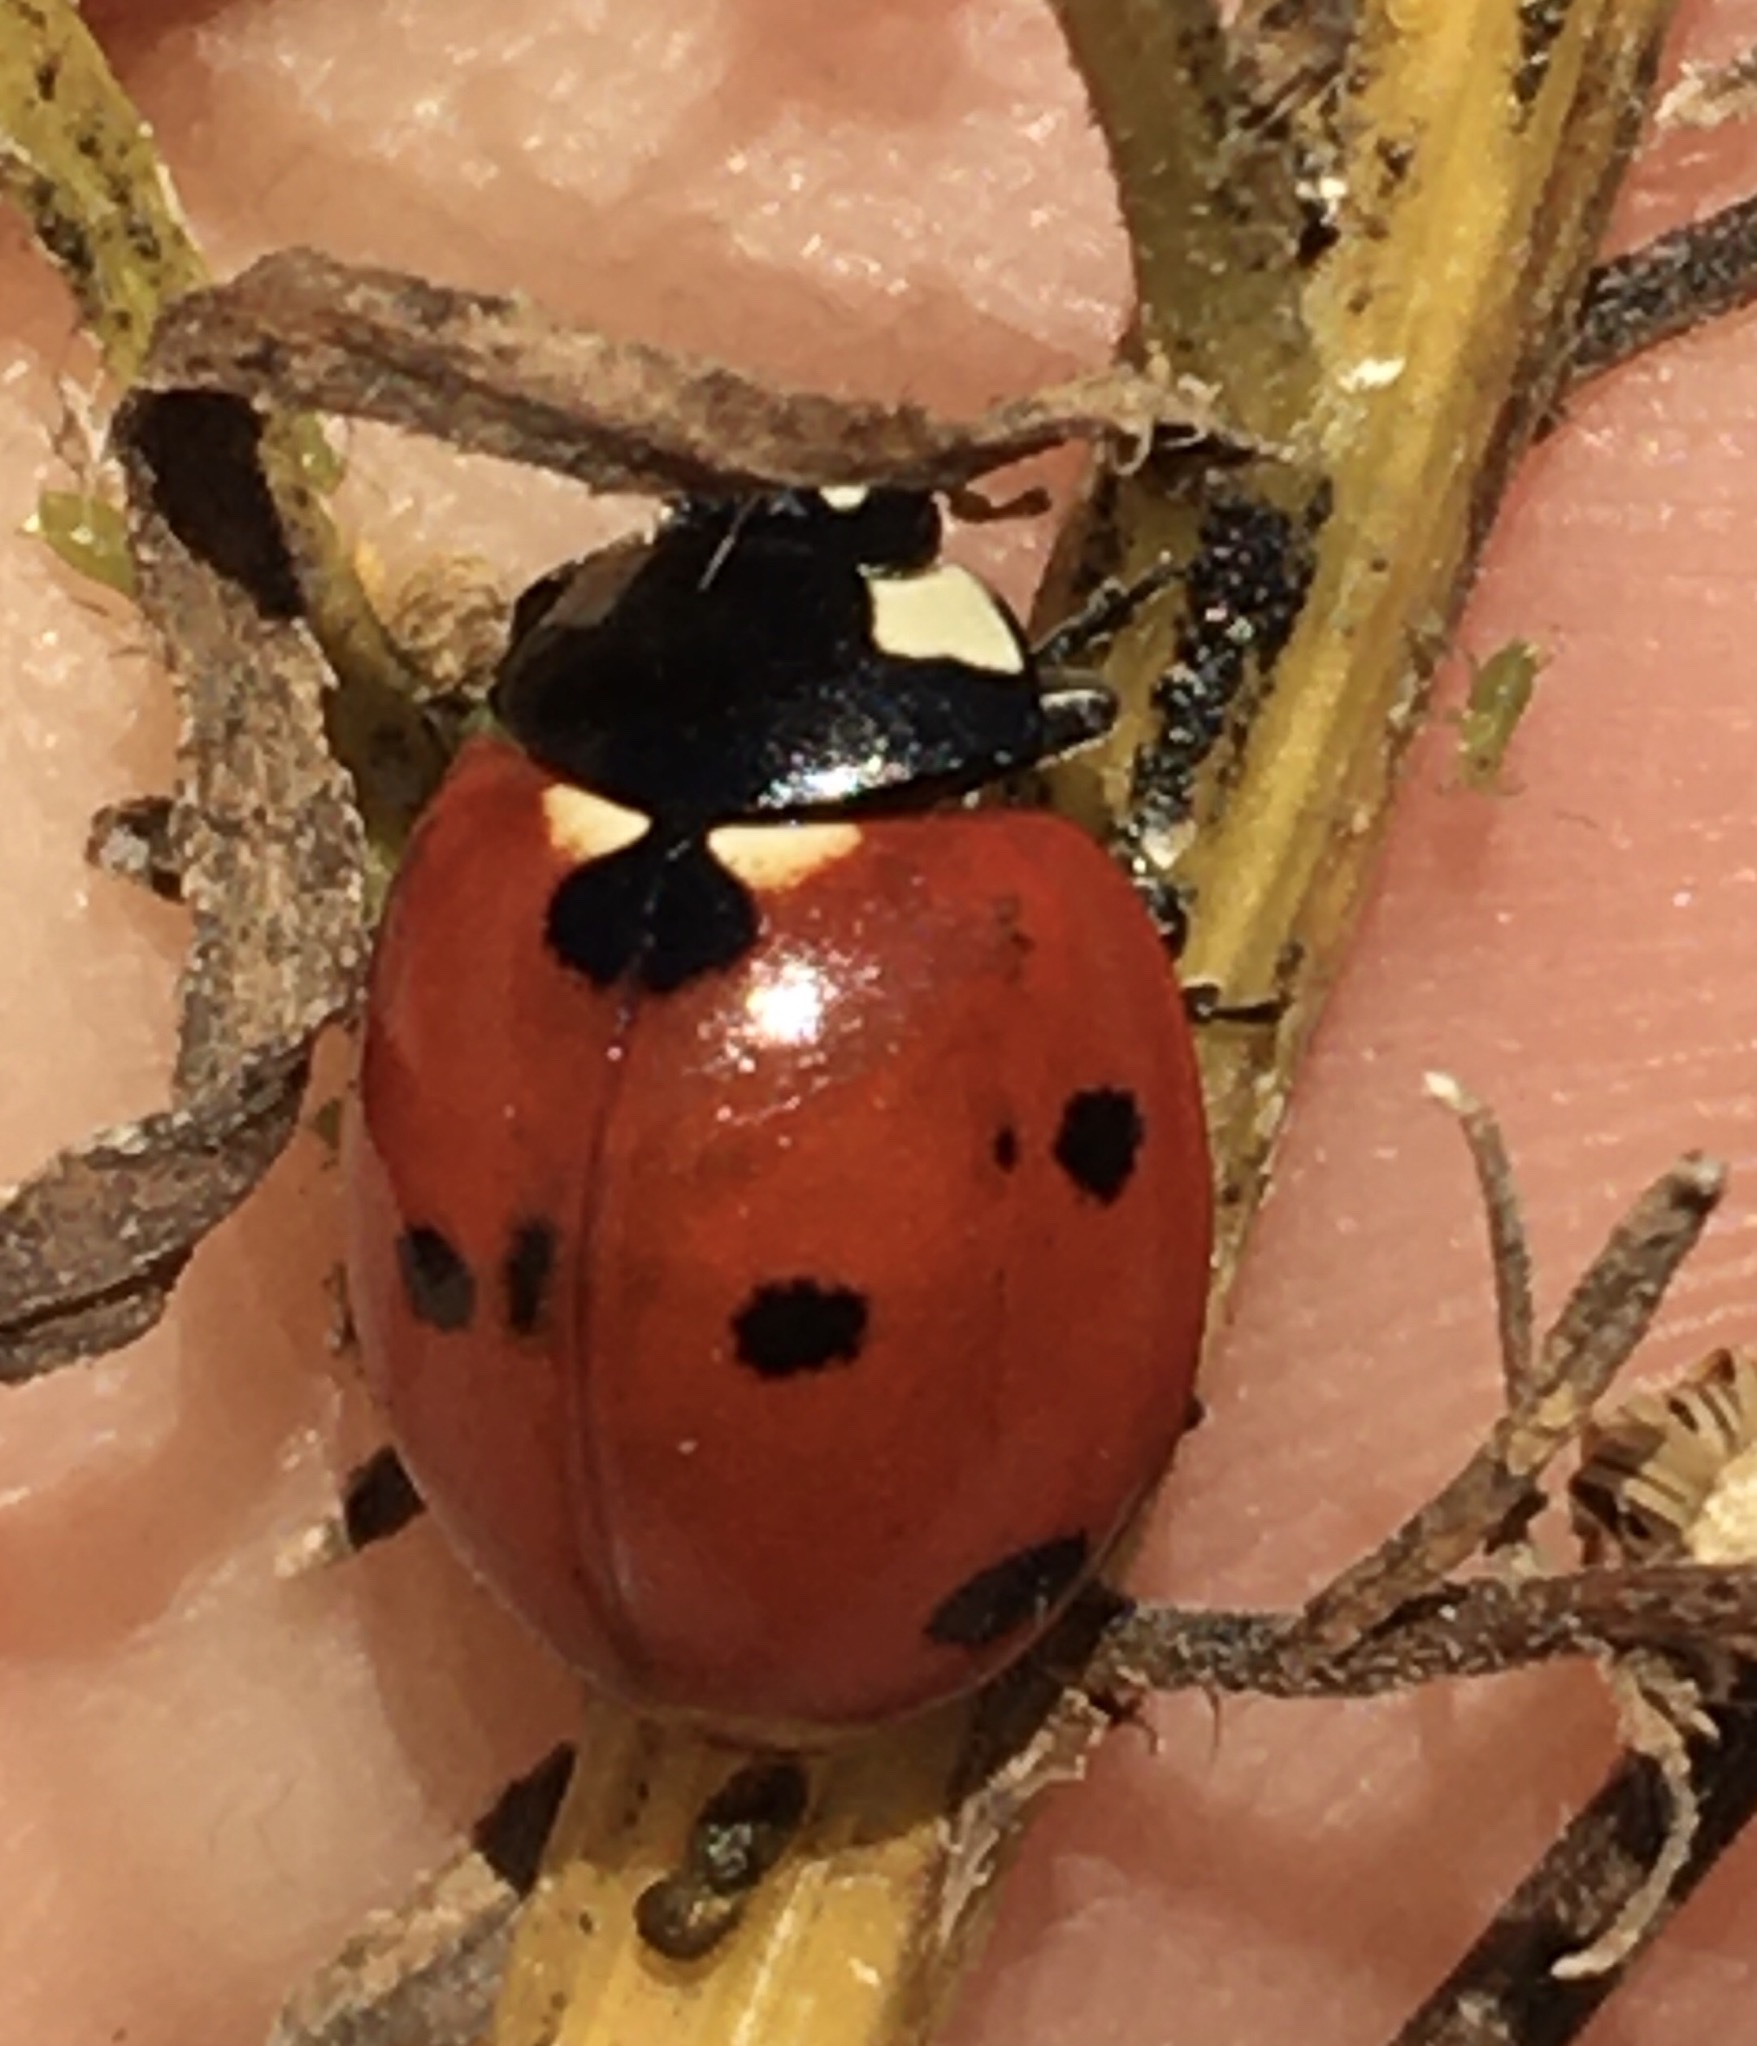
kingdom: Animalia
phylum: Arthropoda
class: Insecta
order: Coleoptera
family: Coccinellidae
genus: Coccinella
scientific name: Coccinella septempunctata
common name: Sevenspotted lady beetle
